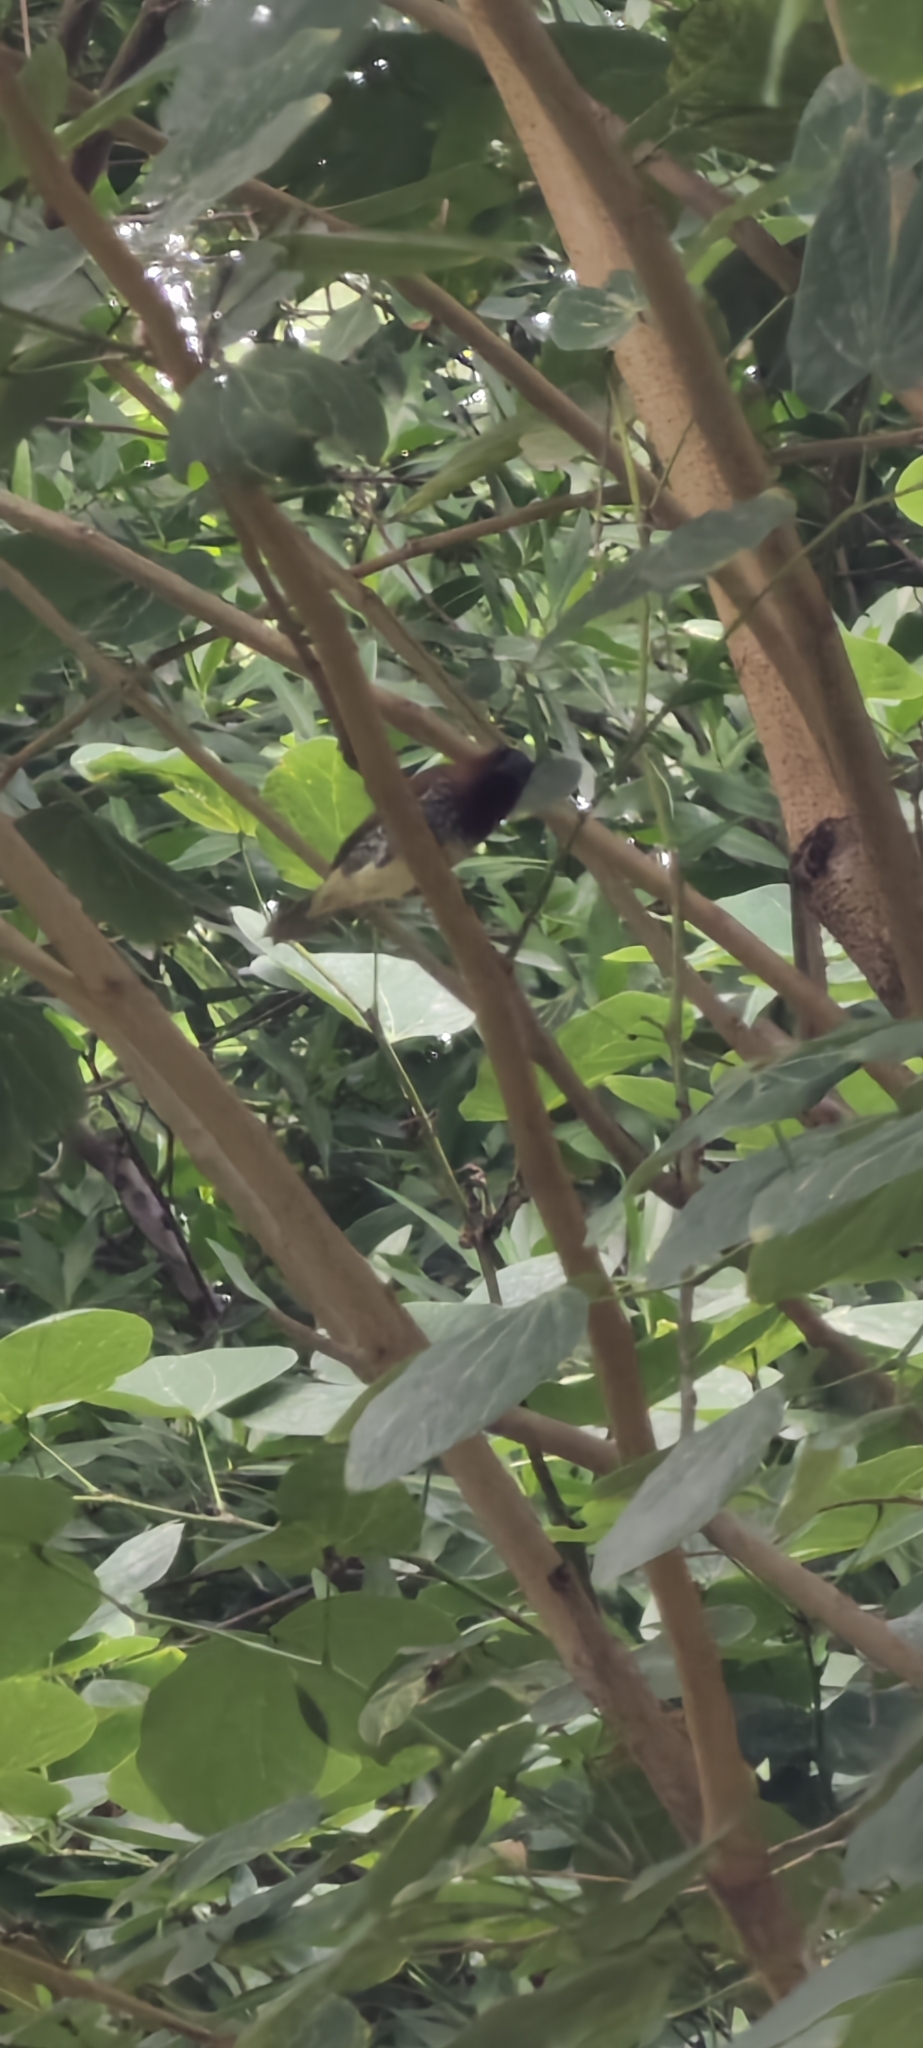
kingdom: Animalia
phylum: Chordata
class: Aves
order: Passeriformes
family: Estrildidae
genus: Lonchura
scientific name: Lonchura punctulata
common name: Scaly-breasted munia
